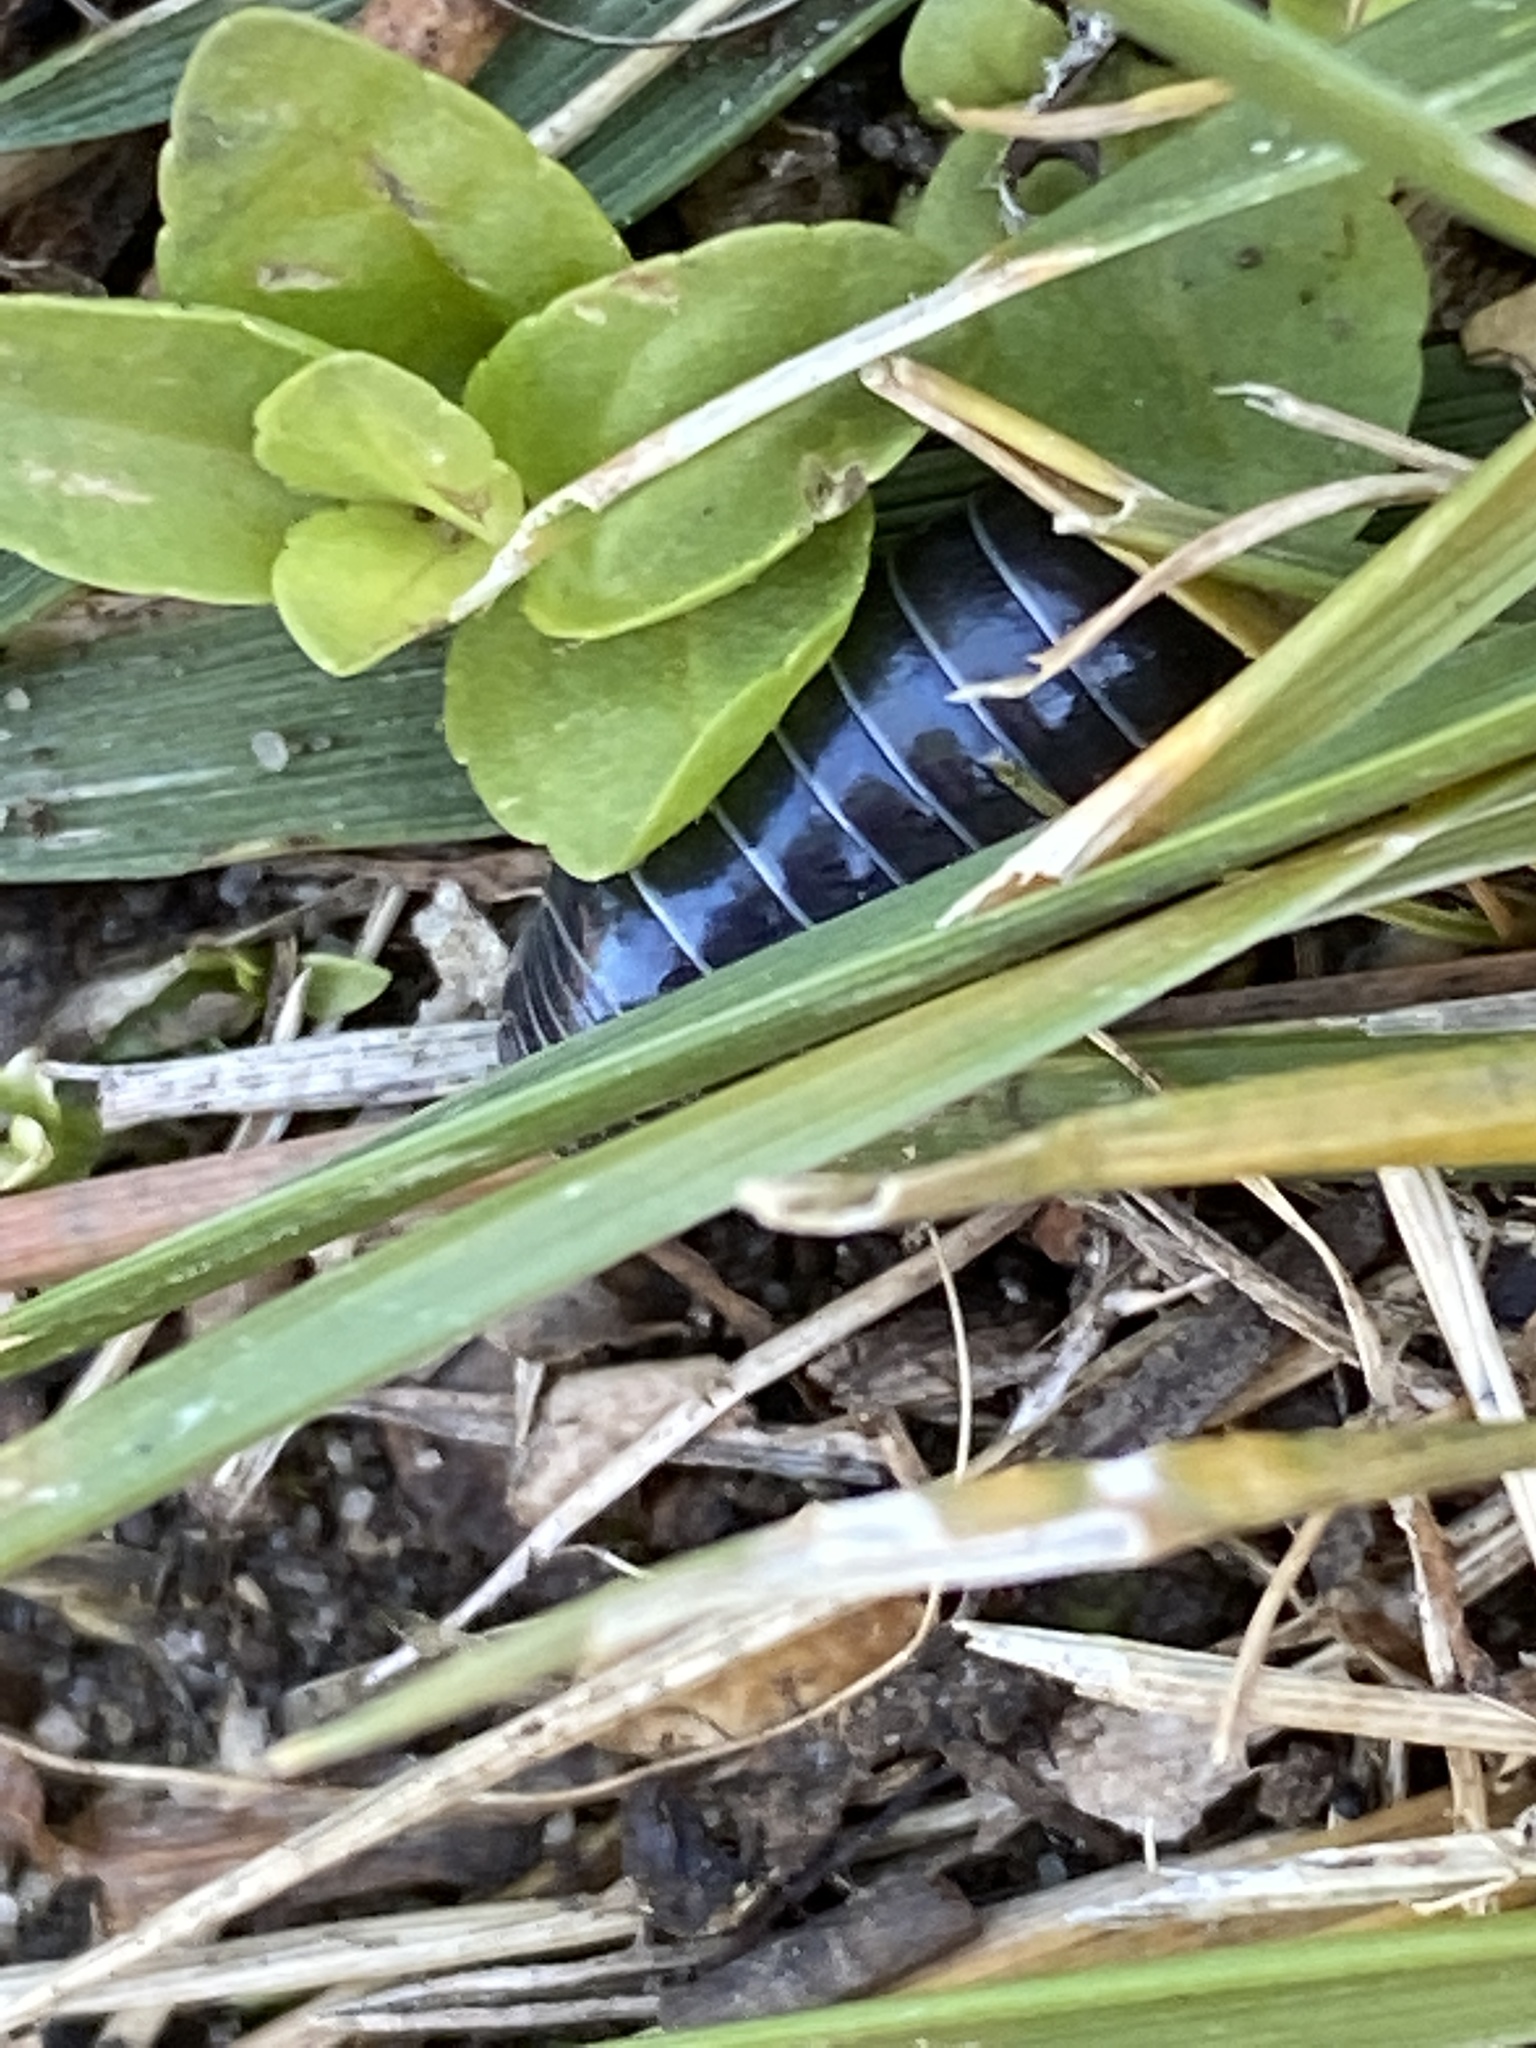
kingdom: Animalia
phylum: Arthropoda
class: Malacostraca
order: Isopoda
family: Armadillidiidae
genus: Armadillidium
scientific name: Armadillidium vulgare
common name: Common pill woodlouse
